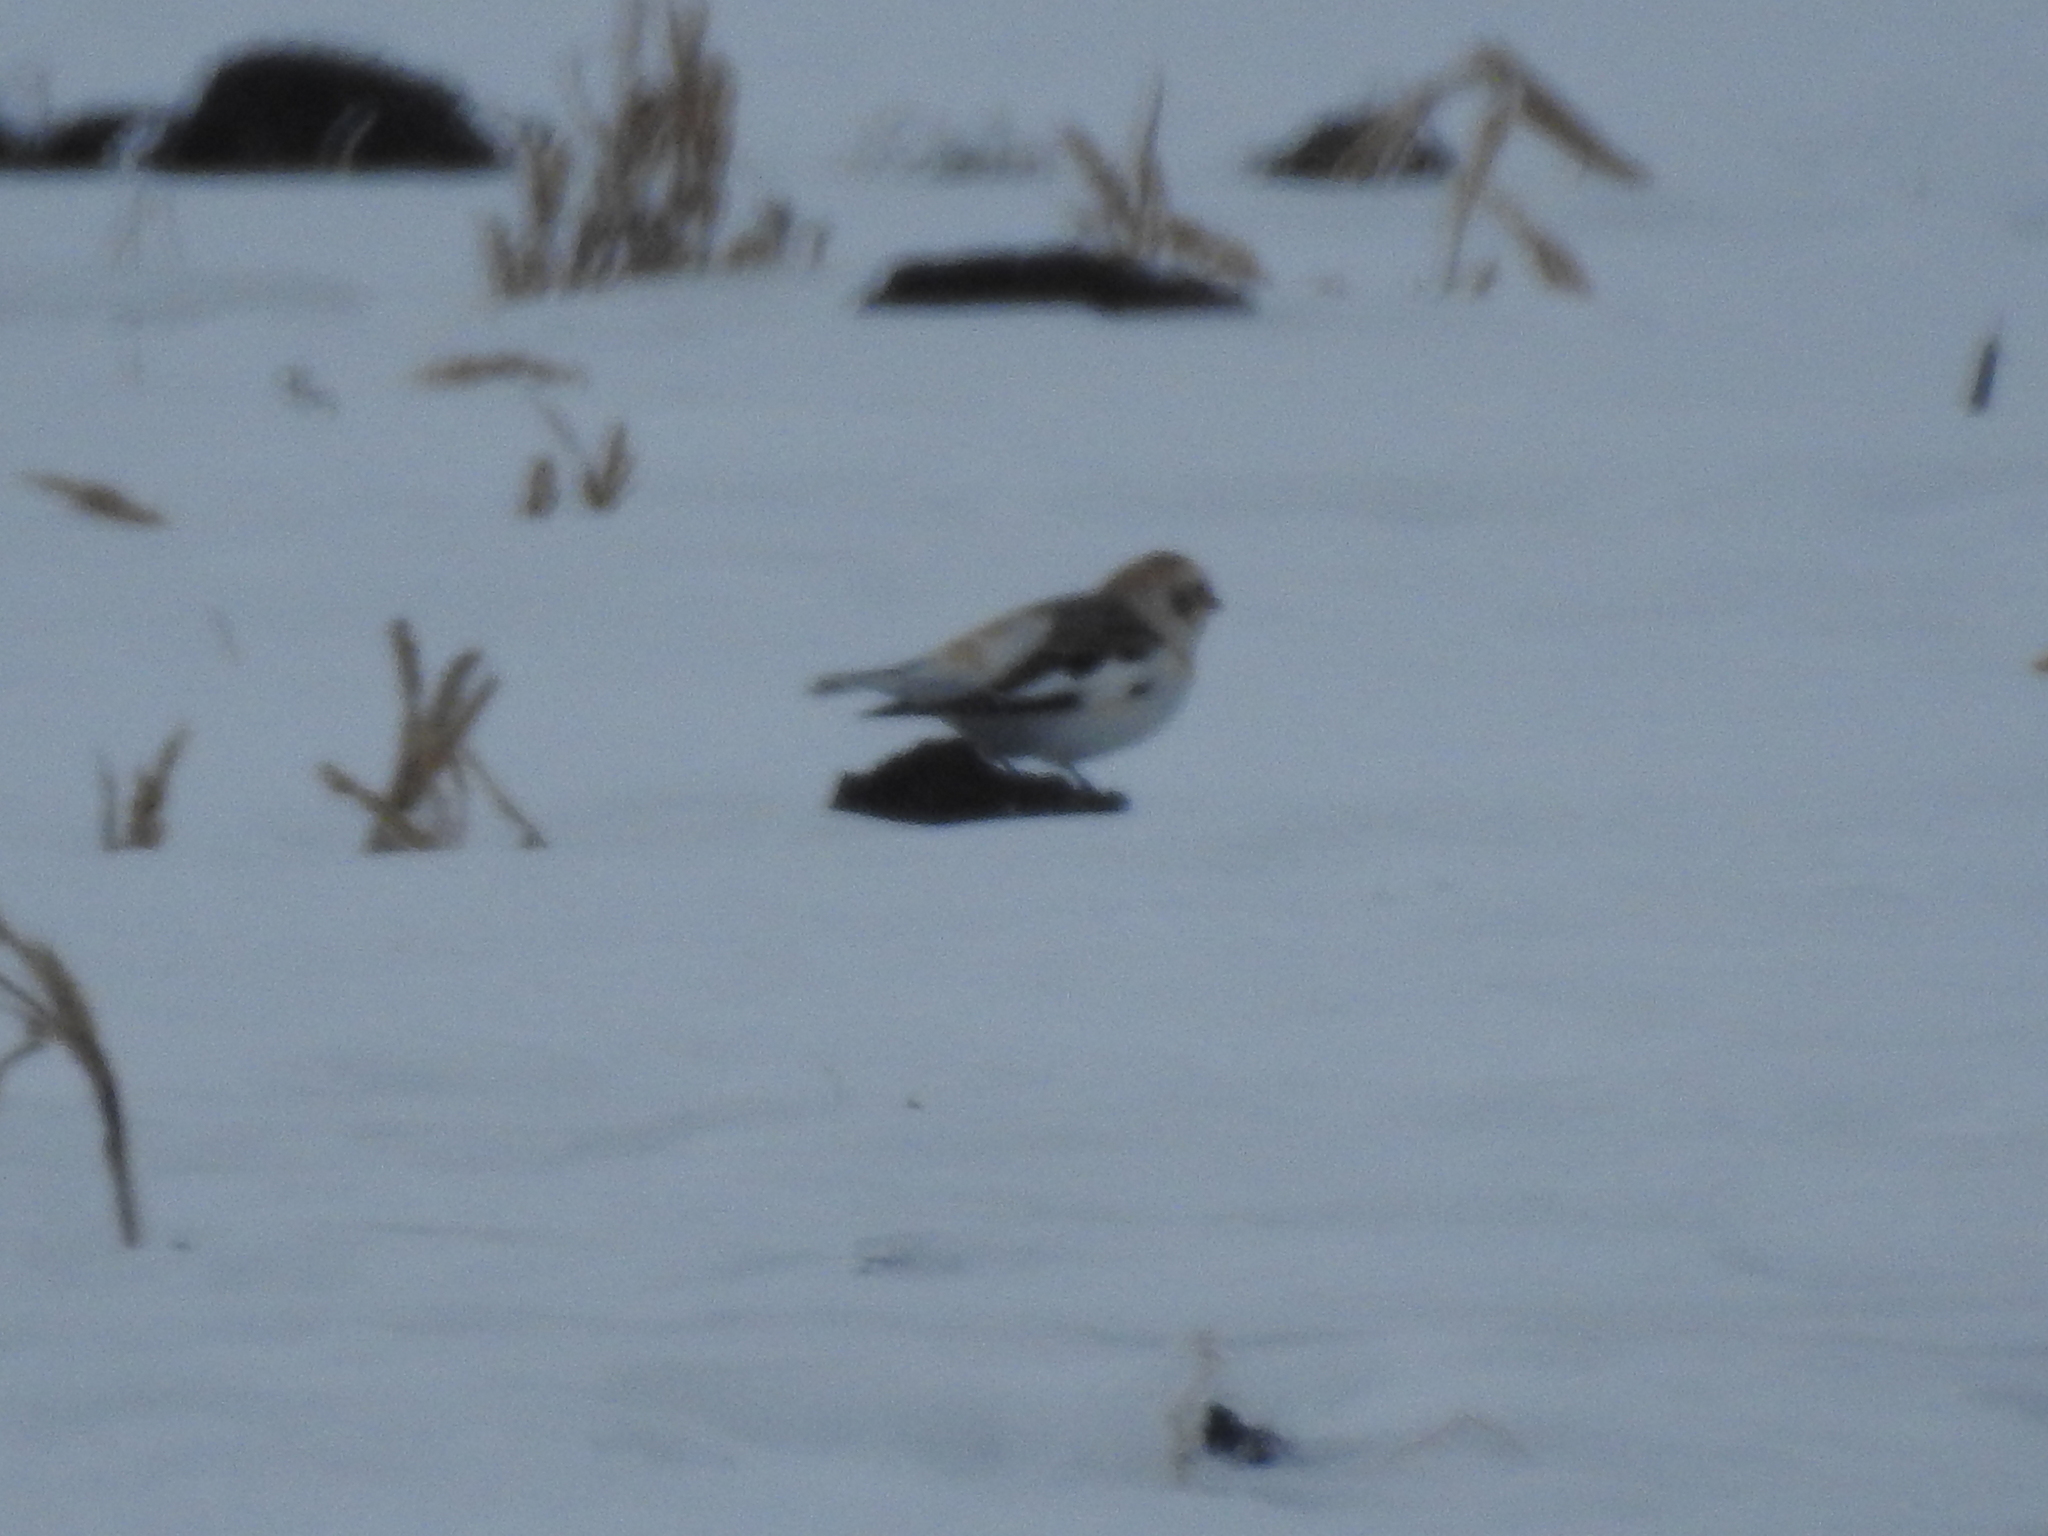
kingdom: Animalia
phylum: Chordata
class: Aves
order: Passeriformes
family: Calcariidae
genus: Plectrophenax
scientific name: Plectrophenax nivalis
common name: Snow bunting
